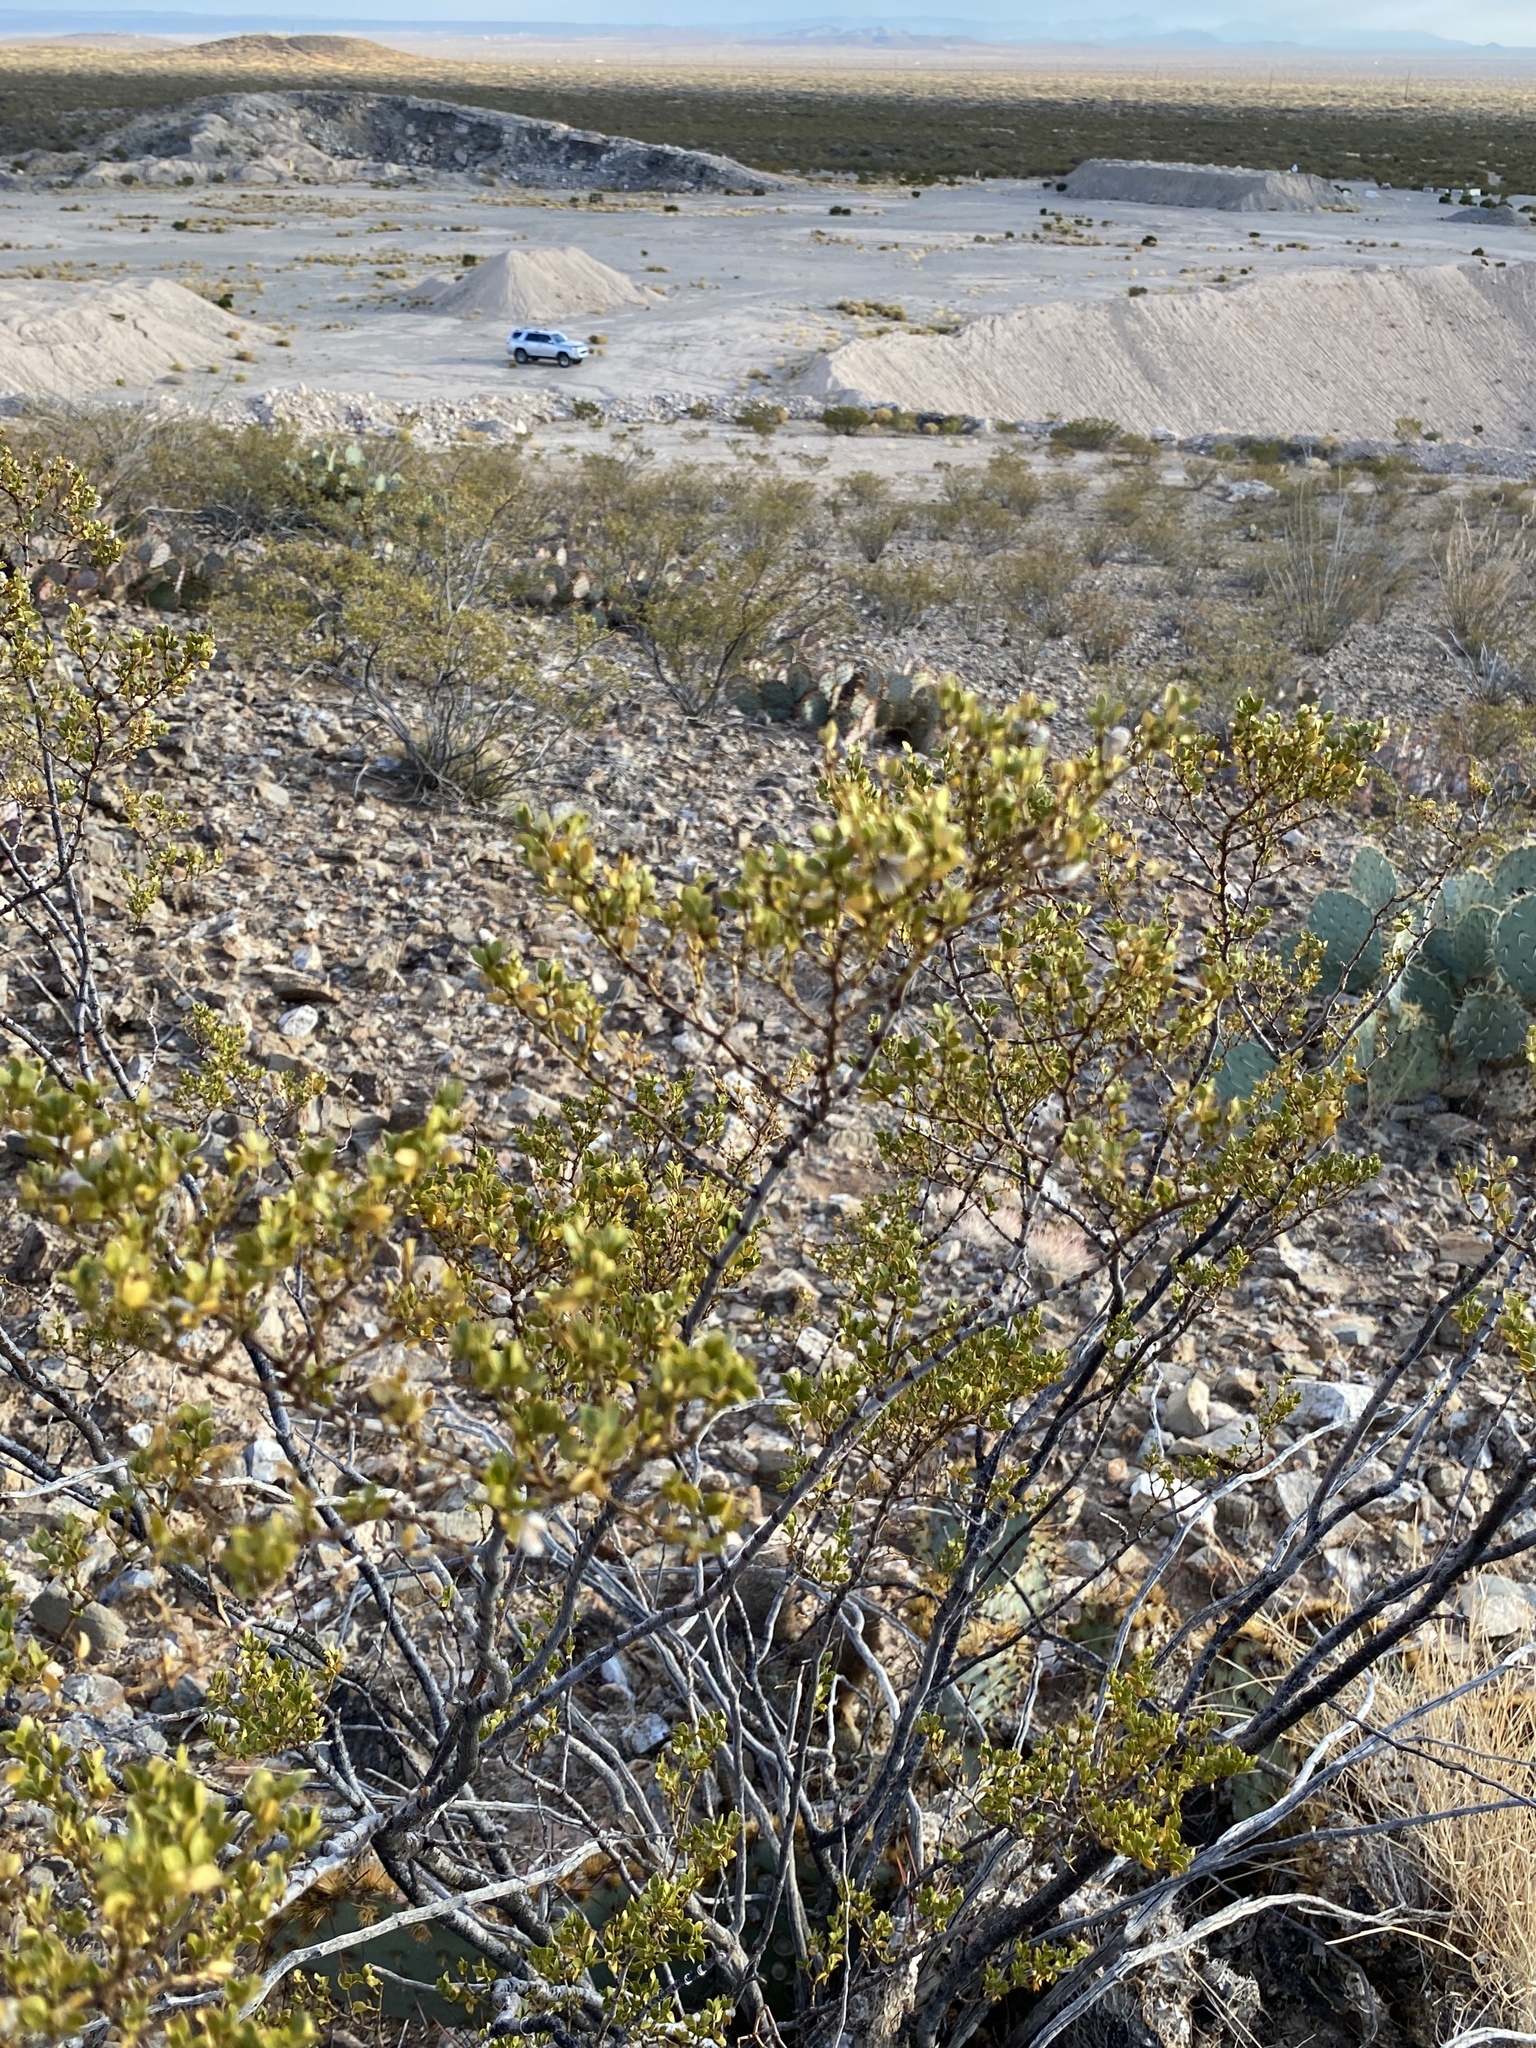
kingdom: Plantae
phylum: Tracheophyta
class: Magnoliopsida
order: Zygophyllales
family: Zygophyllaceae
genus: Larrea
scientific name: Larrea tridentata
